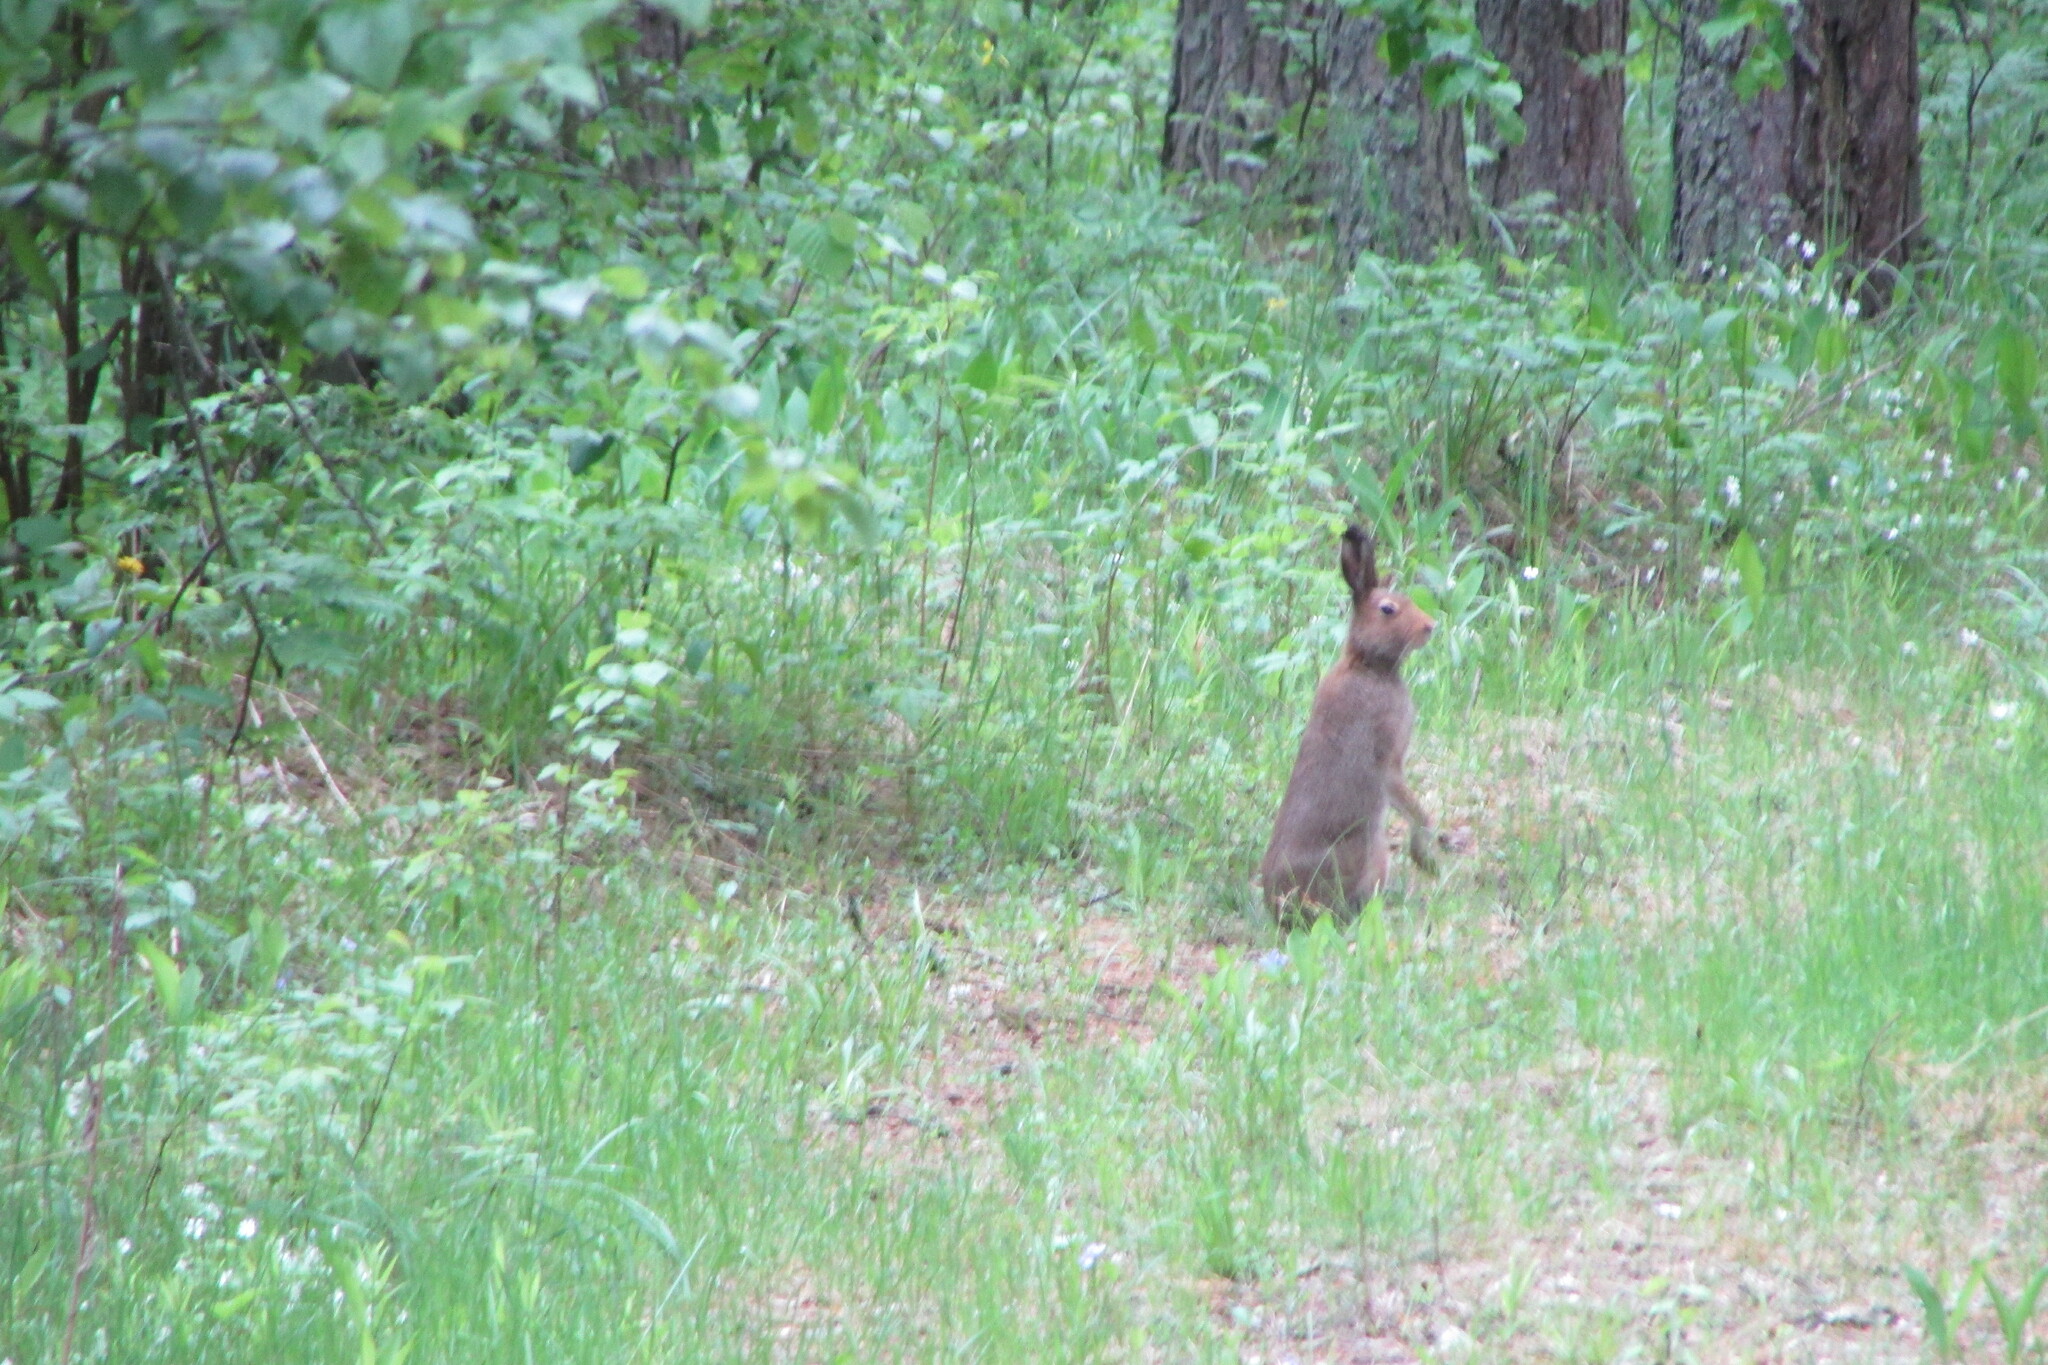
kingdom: Animalia
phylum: Chordata
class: Mammalia
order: Lagomorpha
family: Leporidae
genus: Lepus
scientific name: Lepus timidus
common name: Mountain hare
